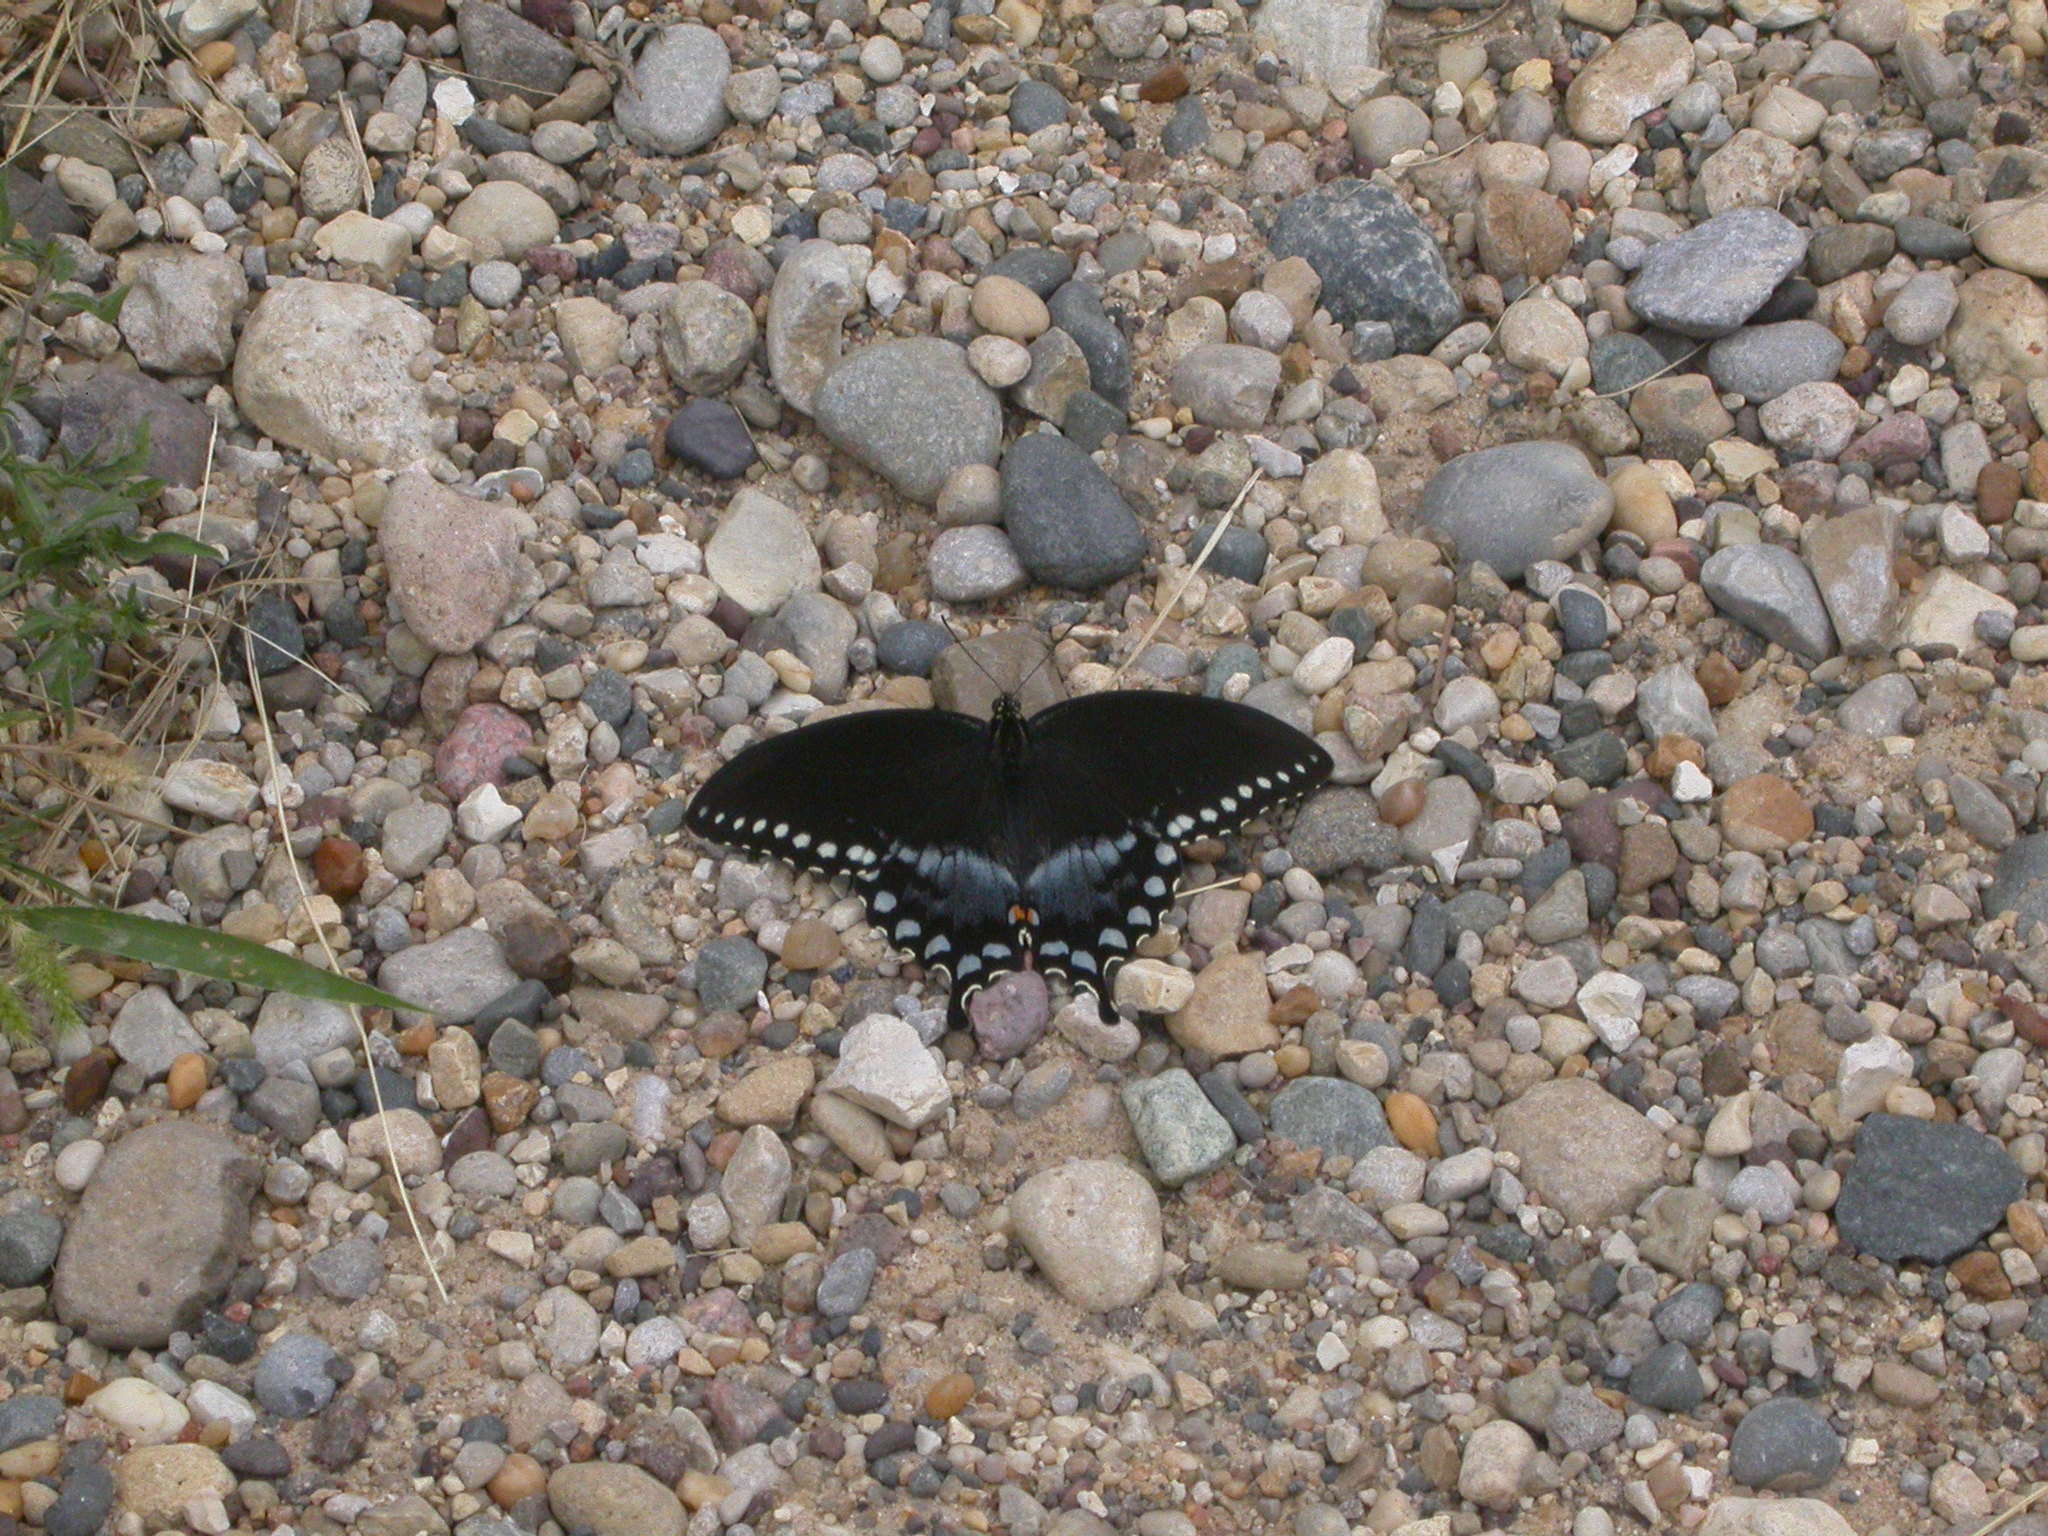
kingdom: Animalia
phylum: Arthropoda
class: Insecta
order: Lepidoptera
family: Papilionidae
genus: Papilio
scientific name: Papilio troilus
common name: Spicebush swallowtail
